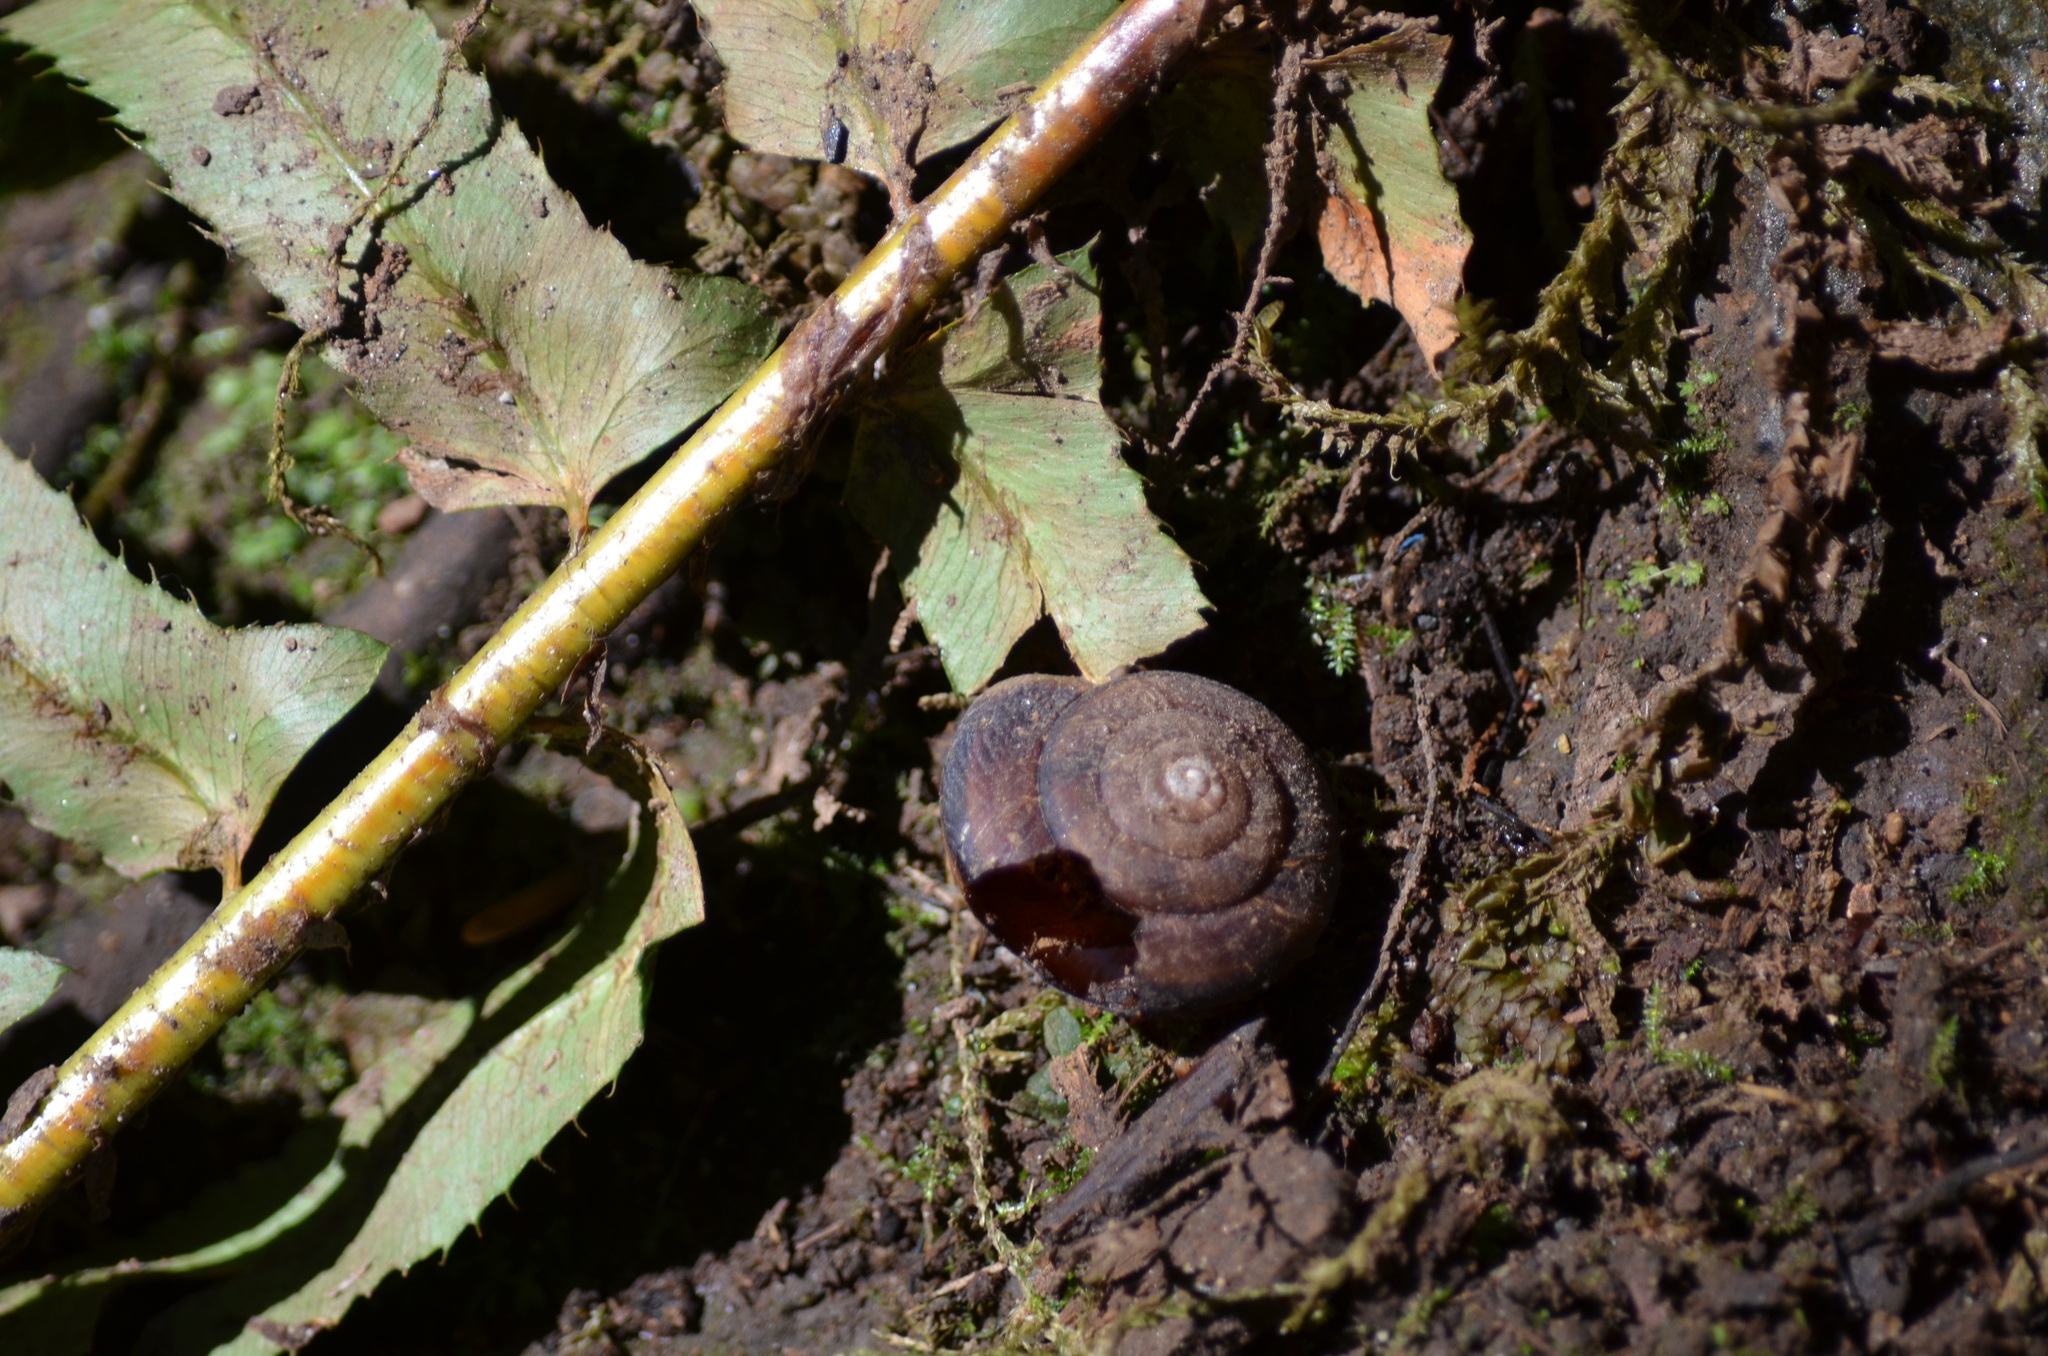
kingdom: Animalia
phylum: Mollusca
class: Gastropoda
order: Stylommatophora
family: Xanthonychidae
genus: Monadenia
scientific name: Monadenia fidelis
